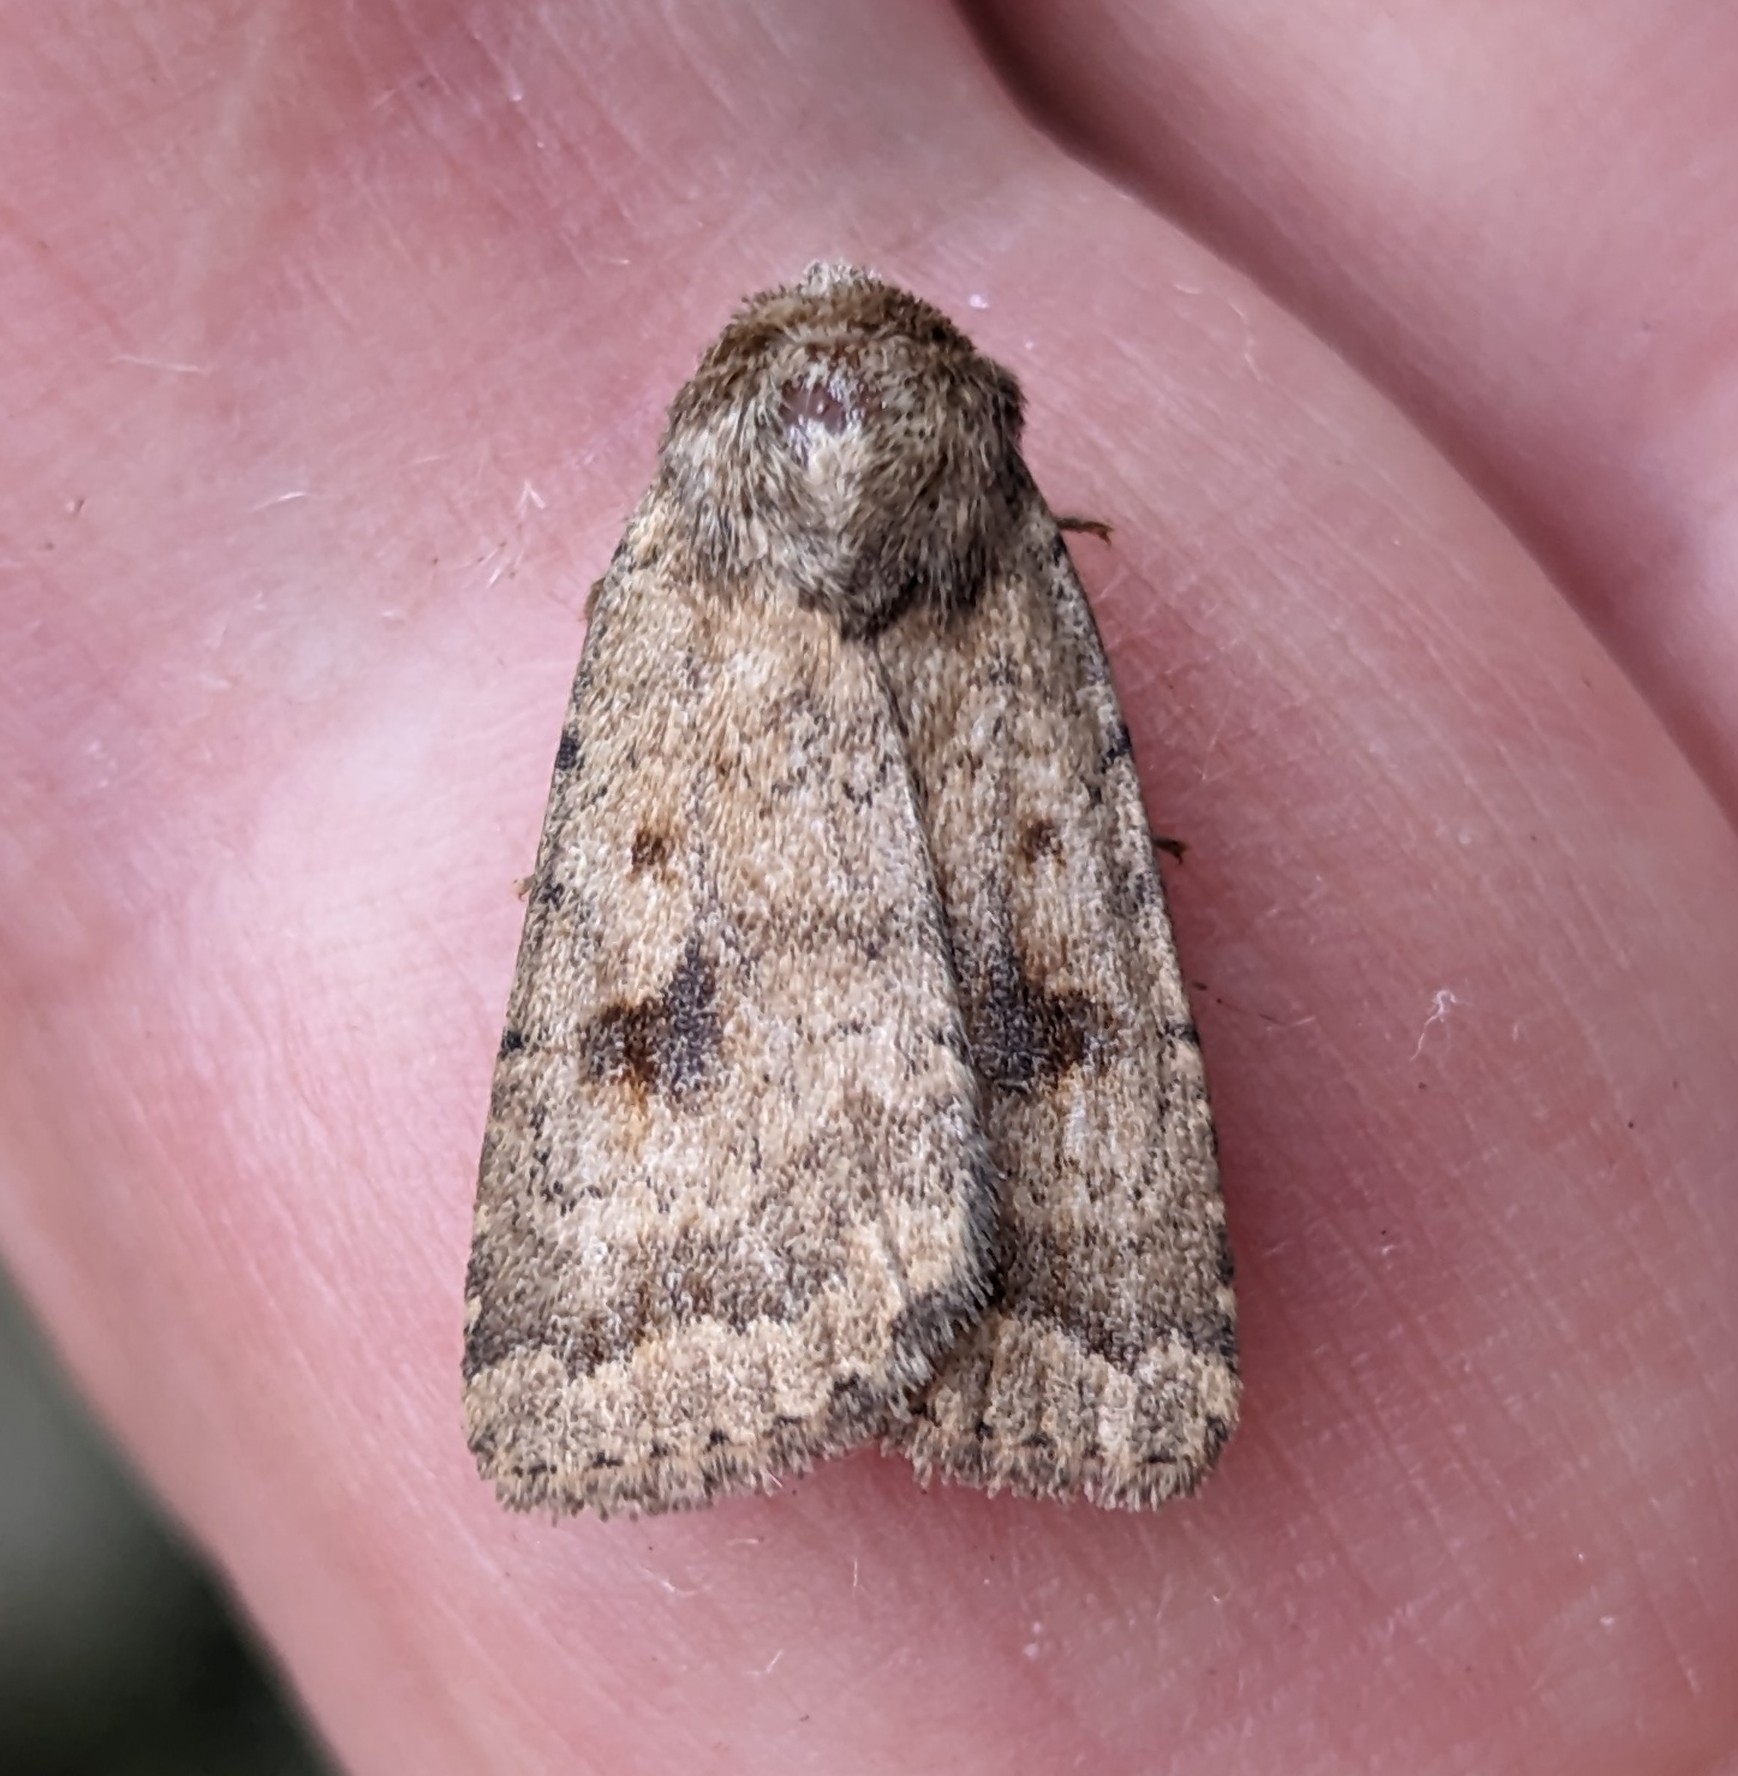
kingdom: Animalia
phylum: Arthropoda
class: Insecta
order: Lepidoptera
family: Noctuidae
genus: Caradrina
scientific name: Caradrina morpheus
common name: Mottled rustic
